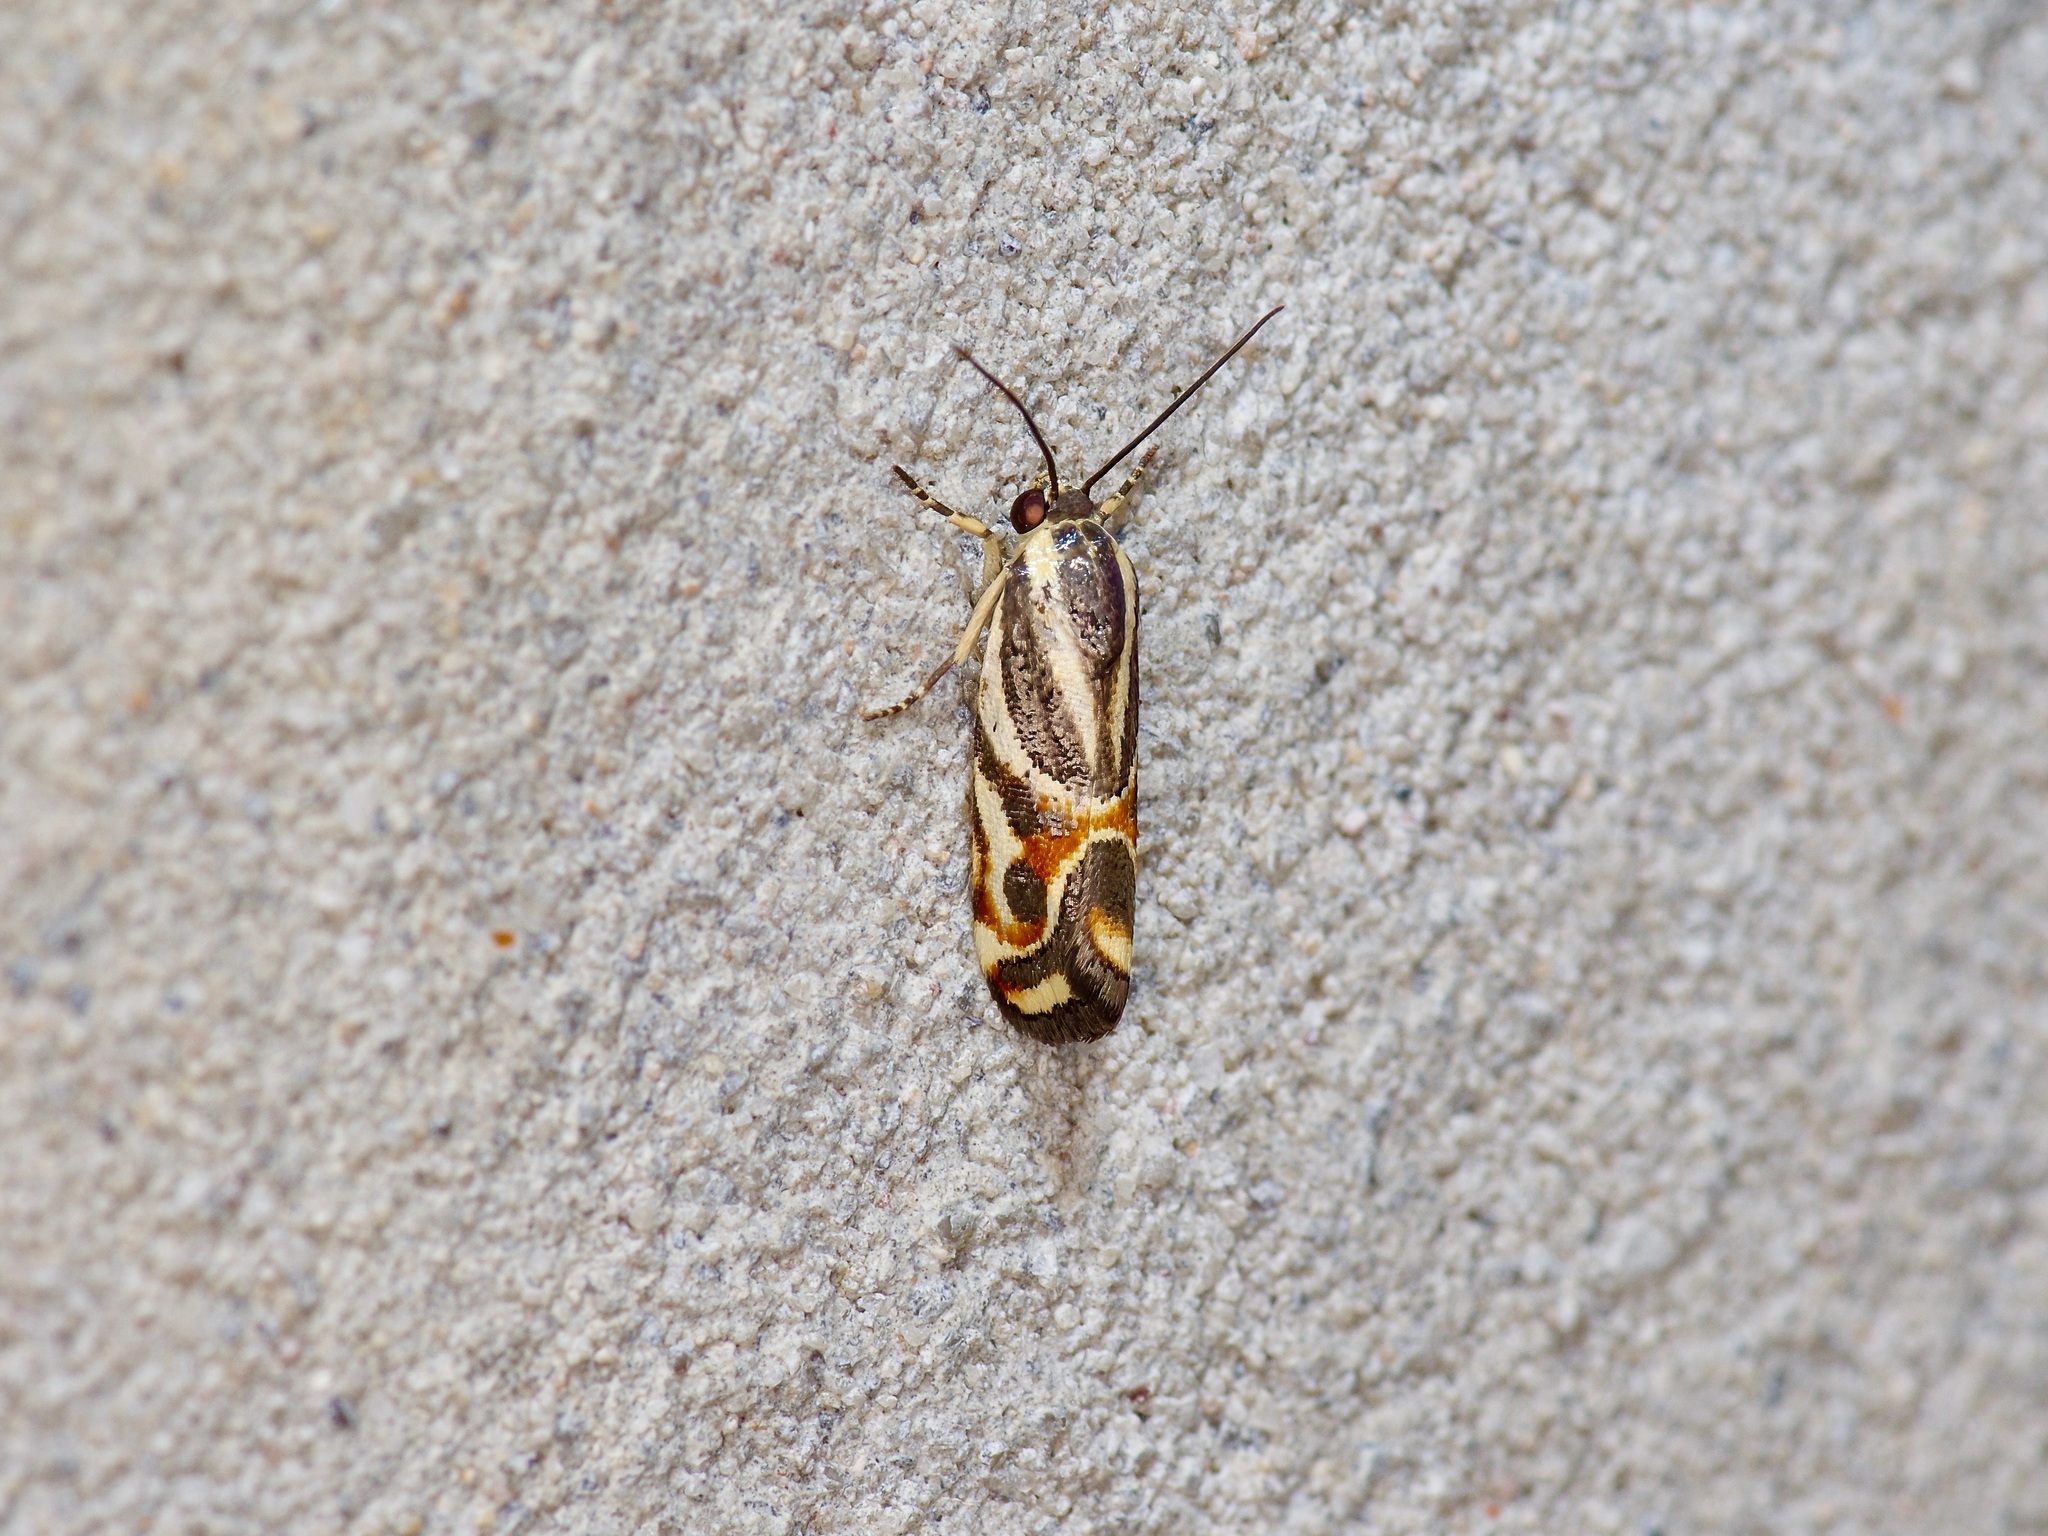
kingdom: Animalia
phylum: Arthropoda
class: Insecta
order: Lepidoptera
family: Noctuidae
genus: Spragueia
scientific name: Spragueia magnifica
